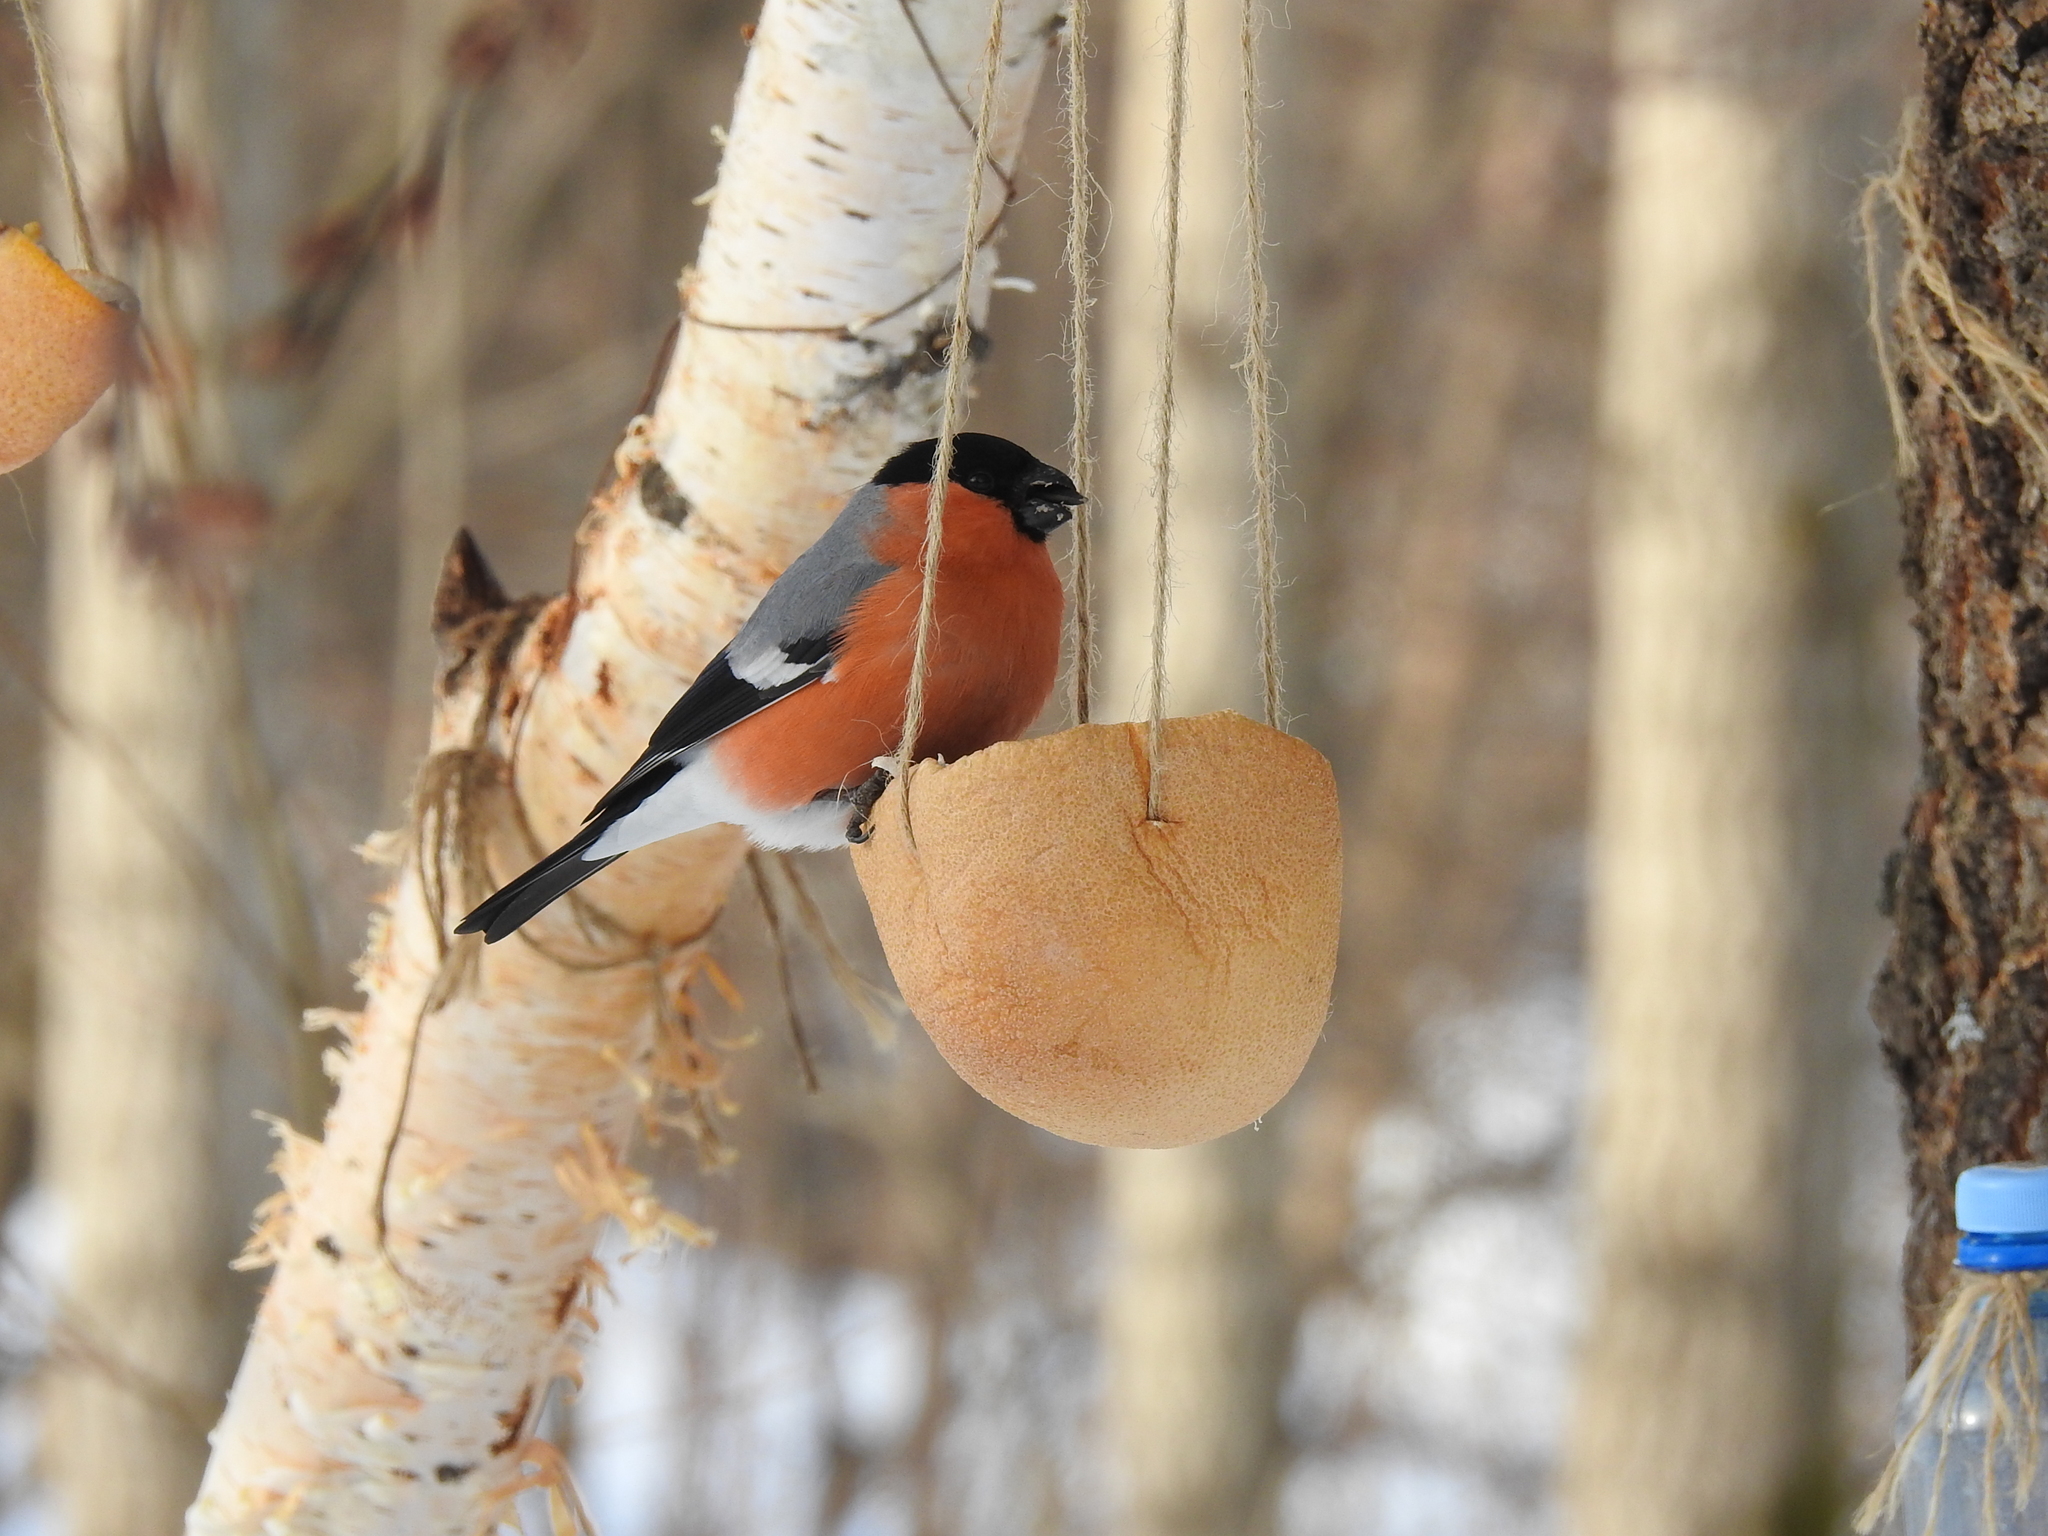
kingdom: Animalia
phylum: Chordata
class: Aves
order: Passeriformes
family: Fringillidae
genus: Pyrrhula
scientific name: Pyrrhula pyrrhula
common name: Eurasian bullfinch
